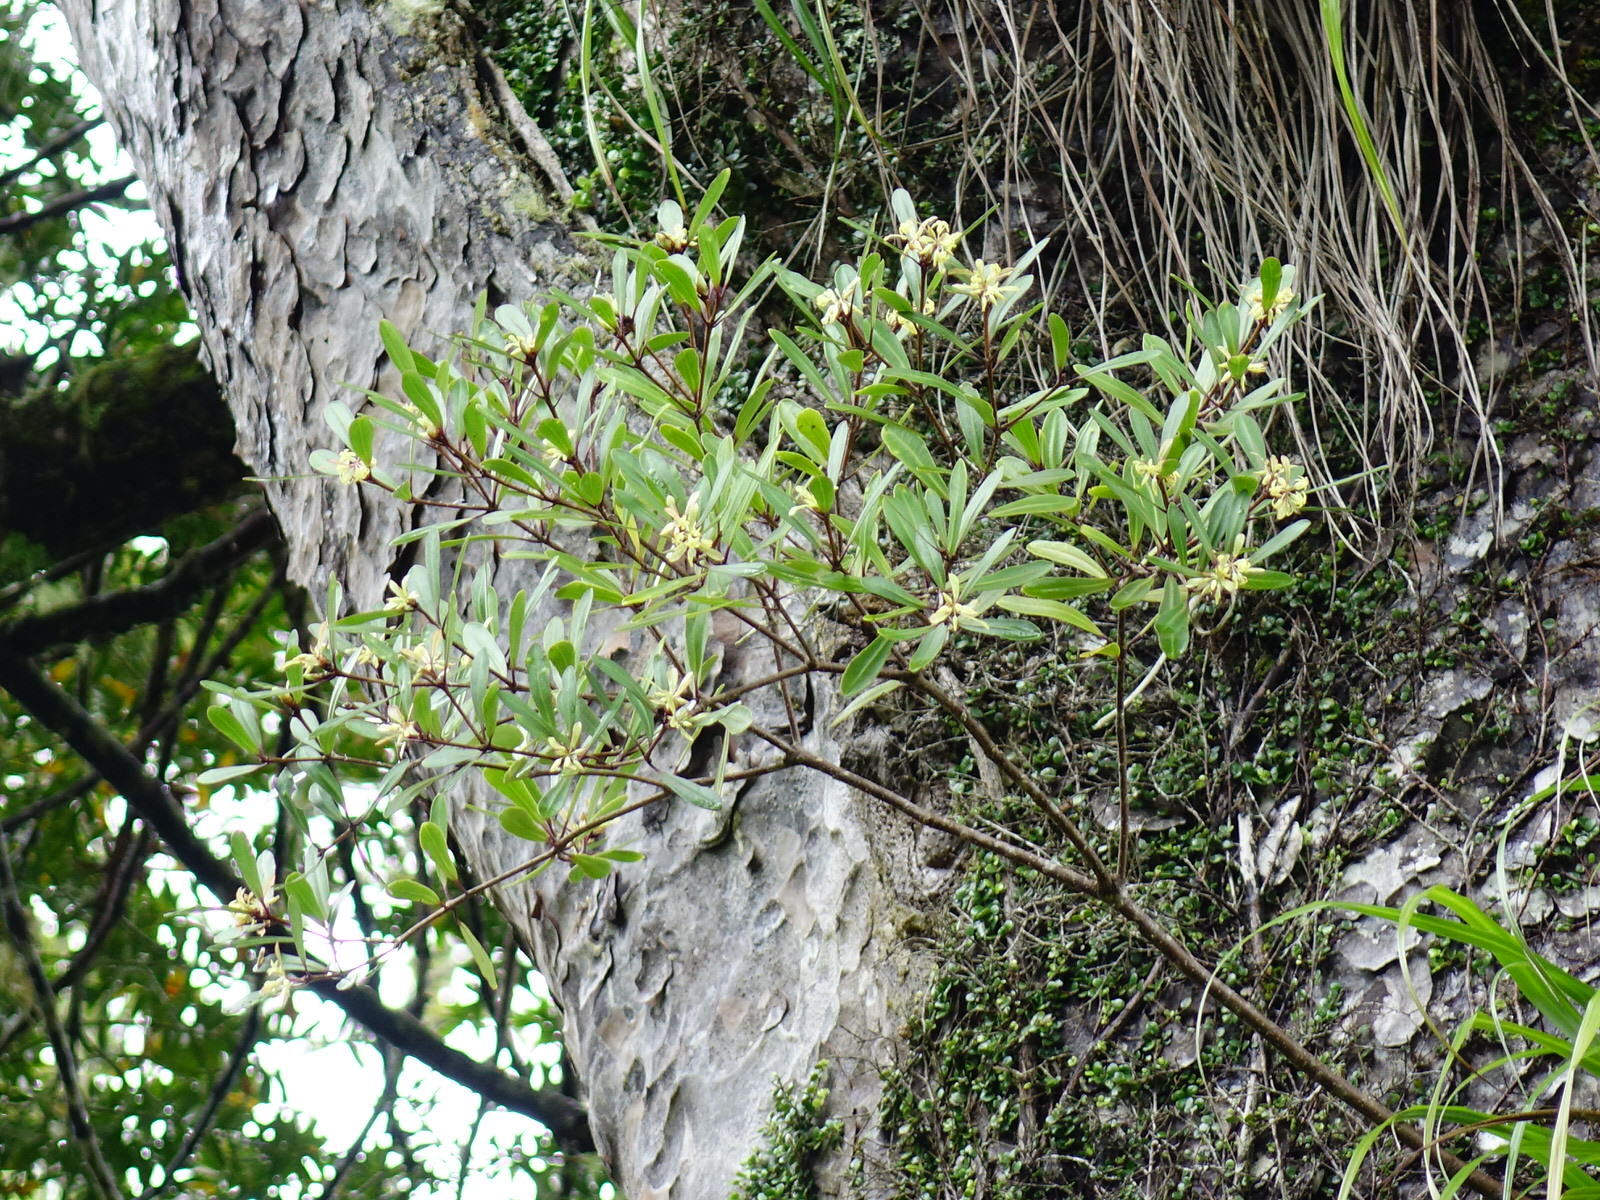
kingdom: Plantae
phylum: Tracheophyta
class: Magnoliopsida
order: Apiales
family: Pittosporaceae
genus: Pittosporum
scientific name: Pittosporum kirkii
